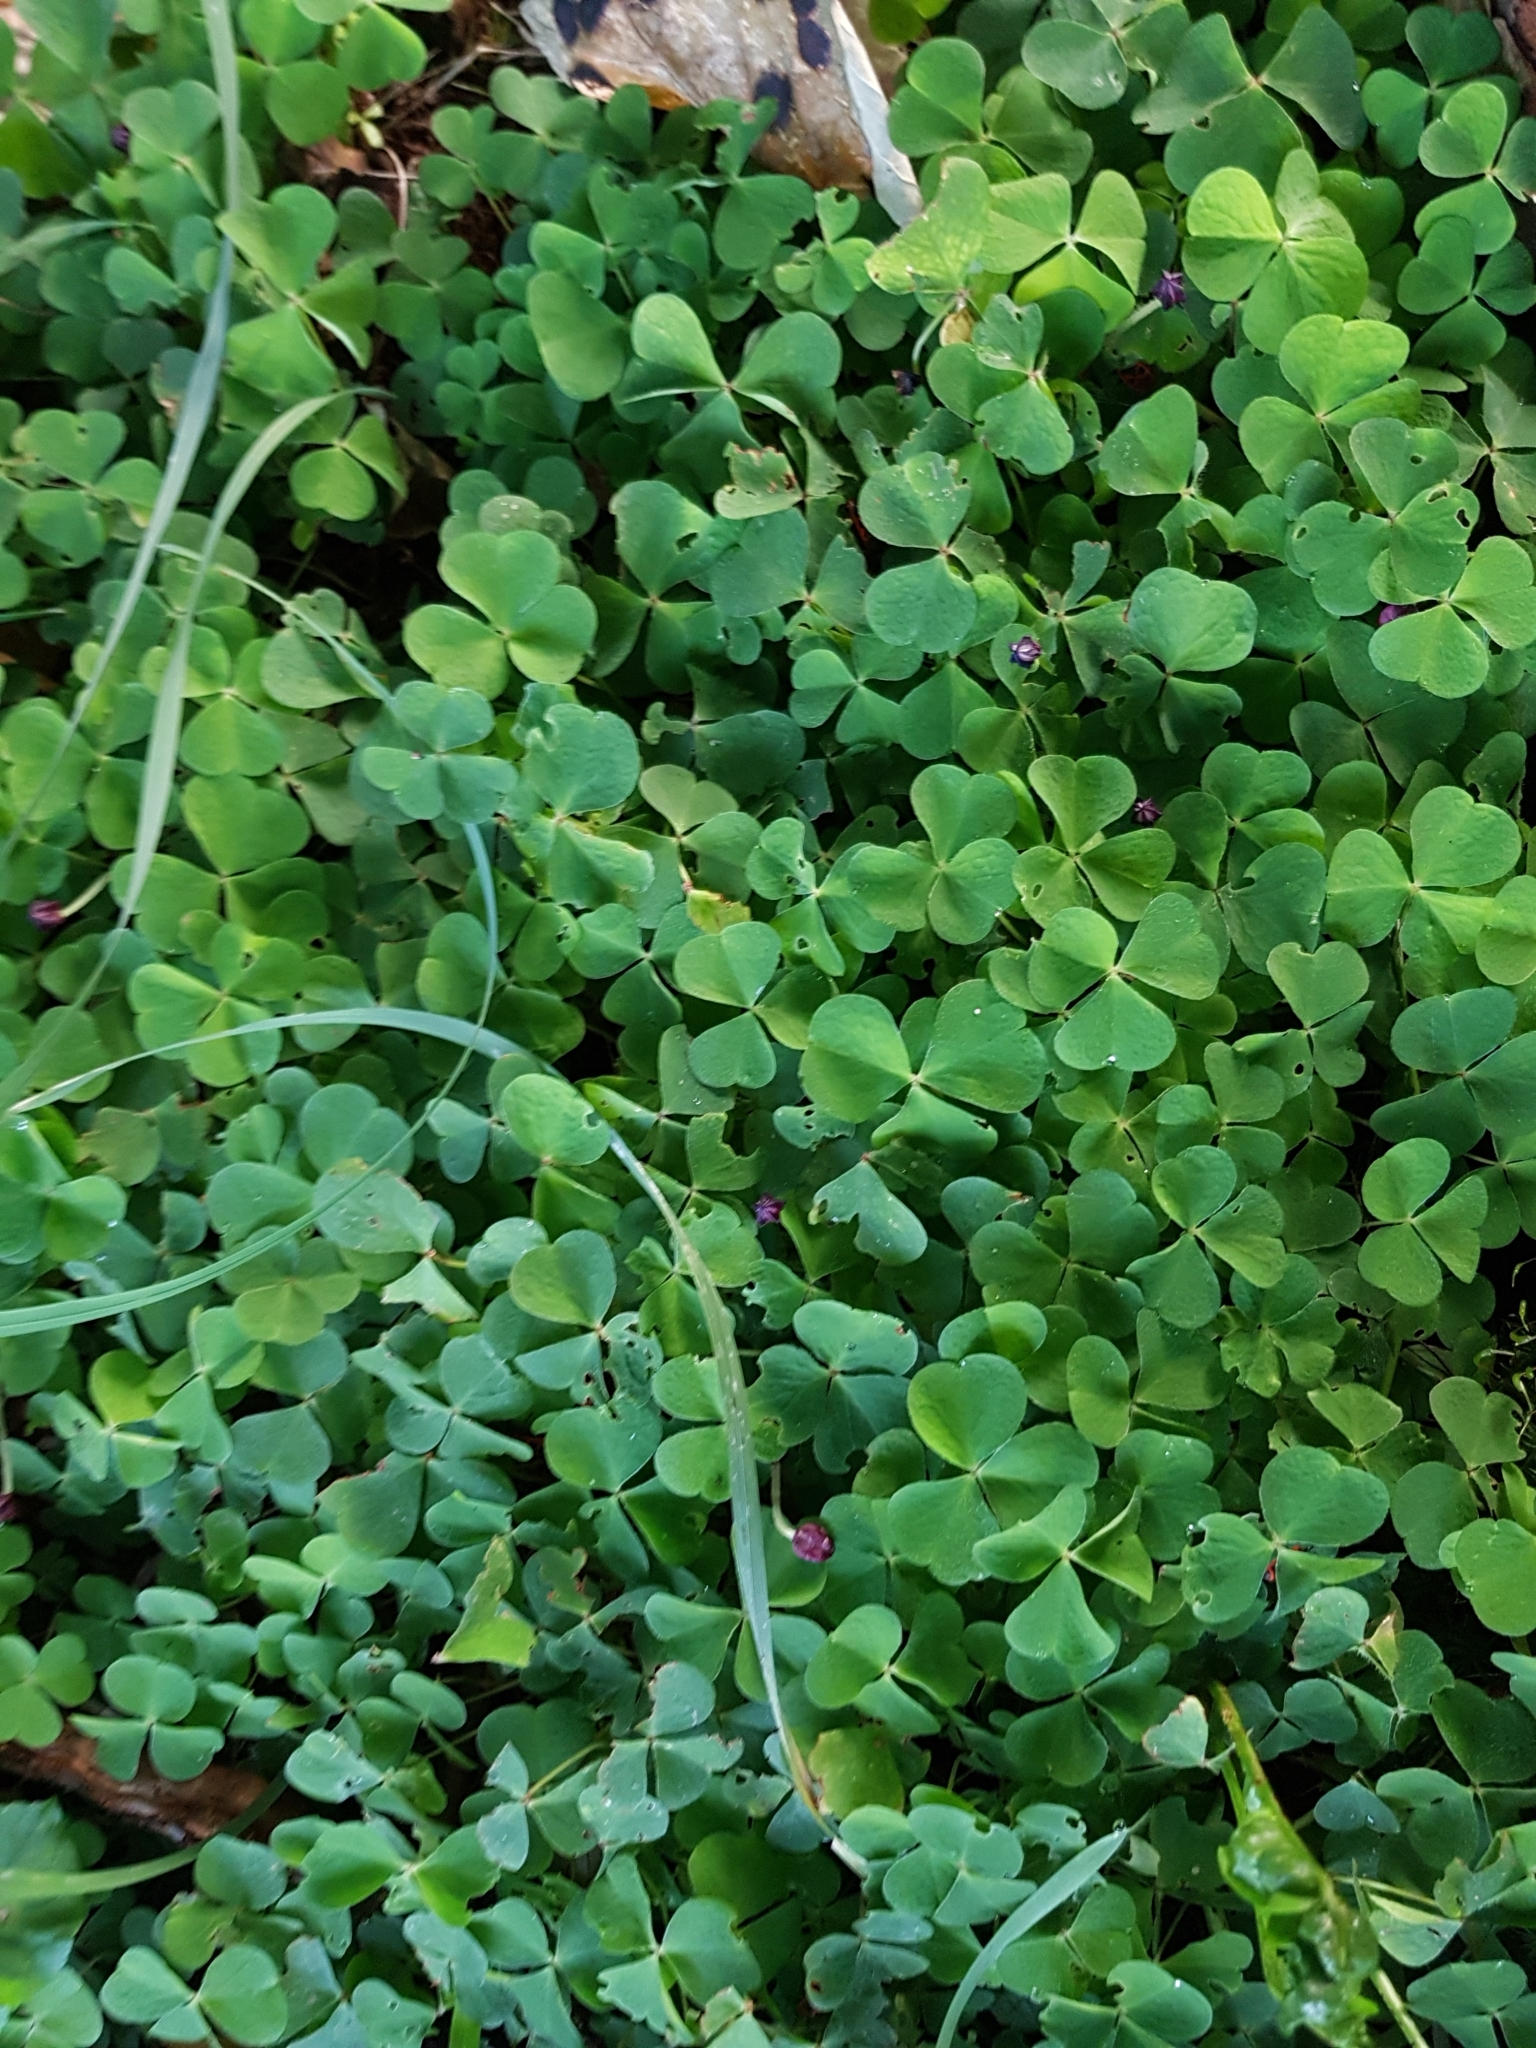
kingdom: Plantae
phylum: Tracheophyta
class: Magnoliopsida
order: Oxalidales
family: Oxalidaceae
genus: Oxalis
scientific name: Oxalis acetosella
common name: Wood-sorrel
